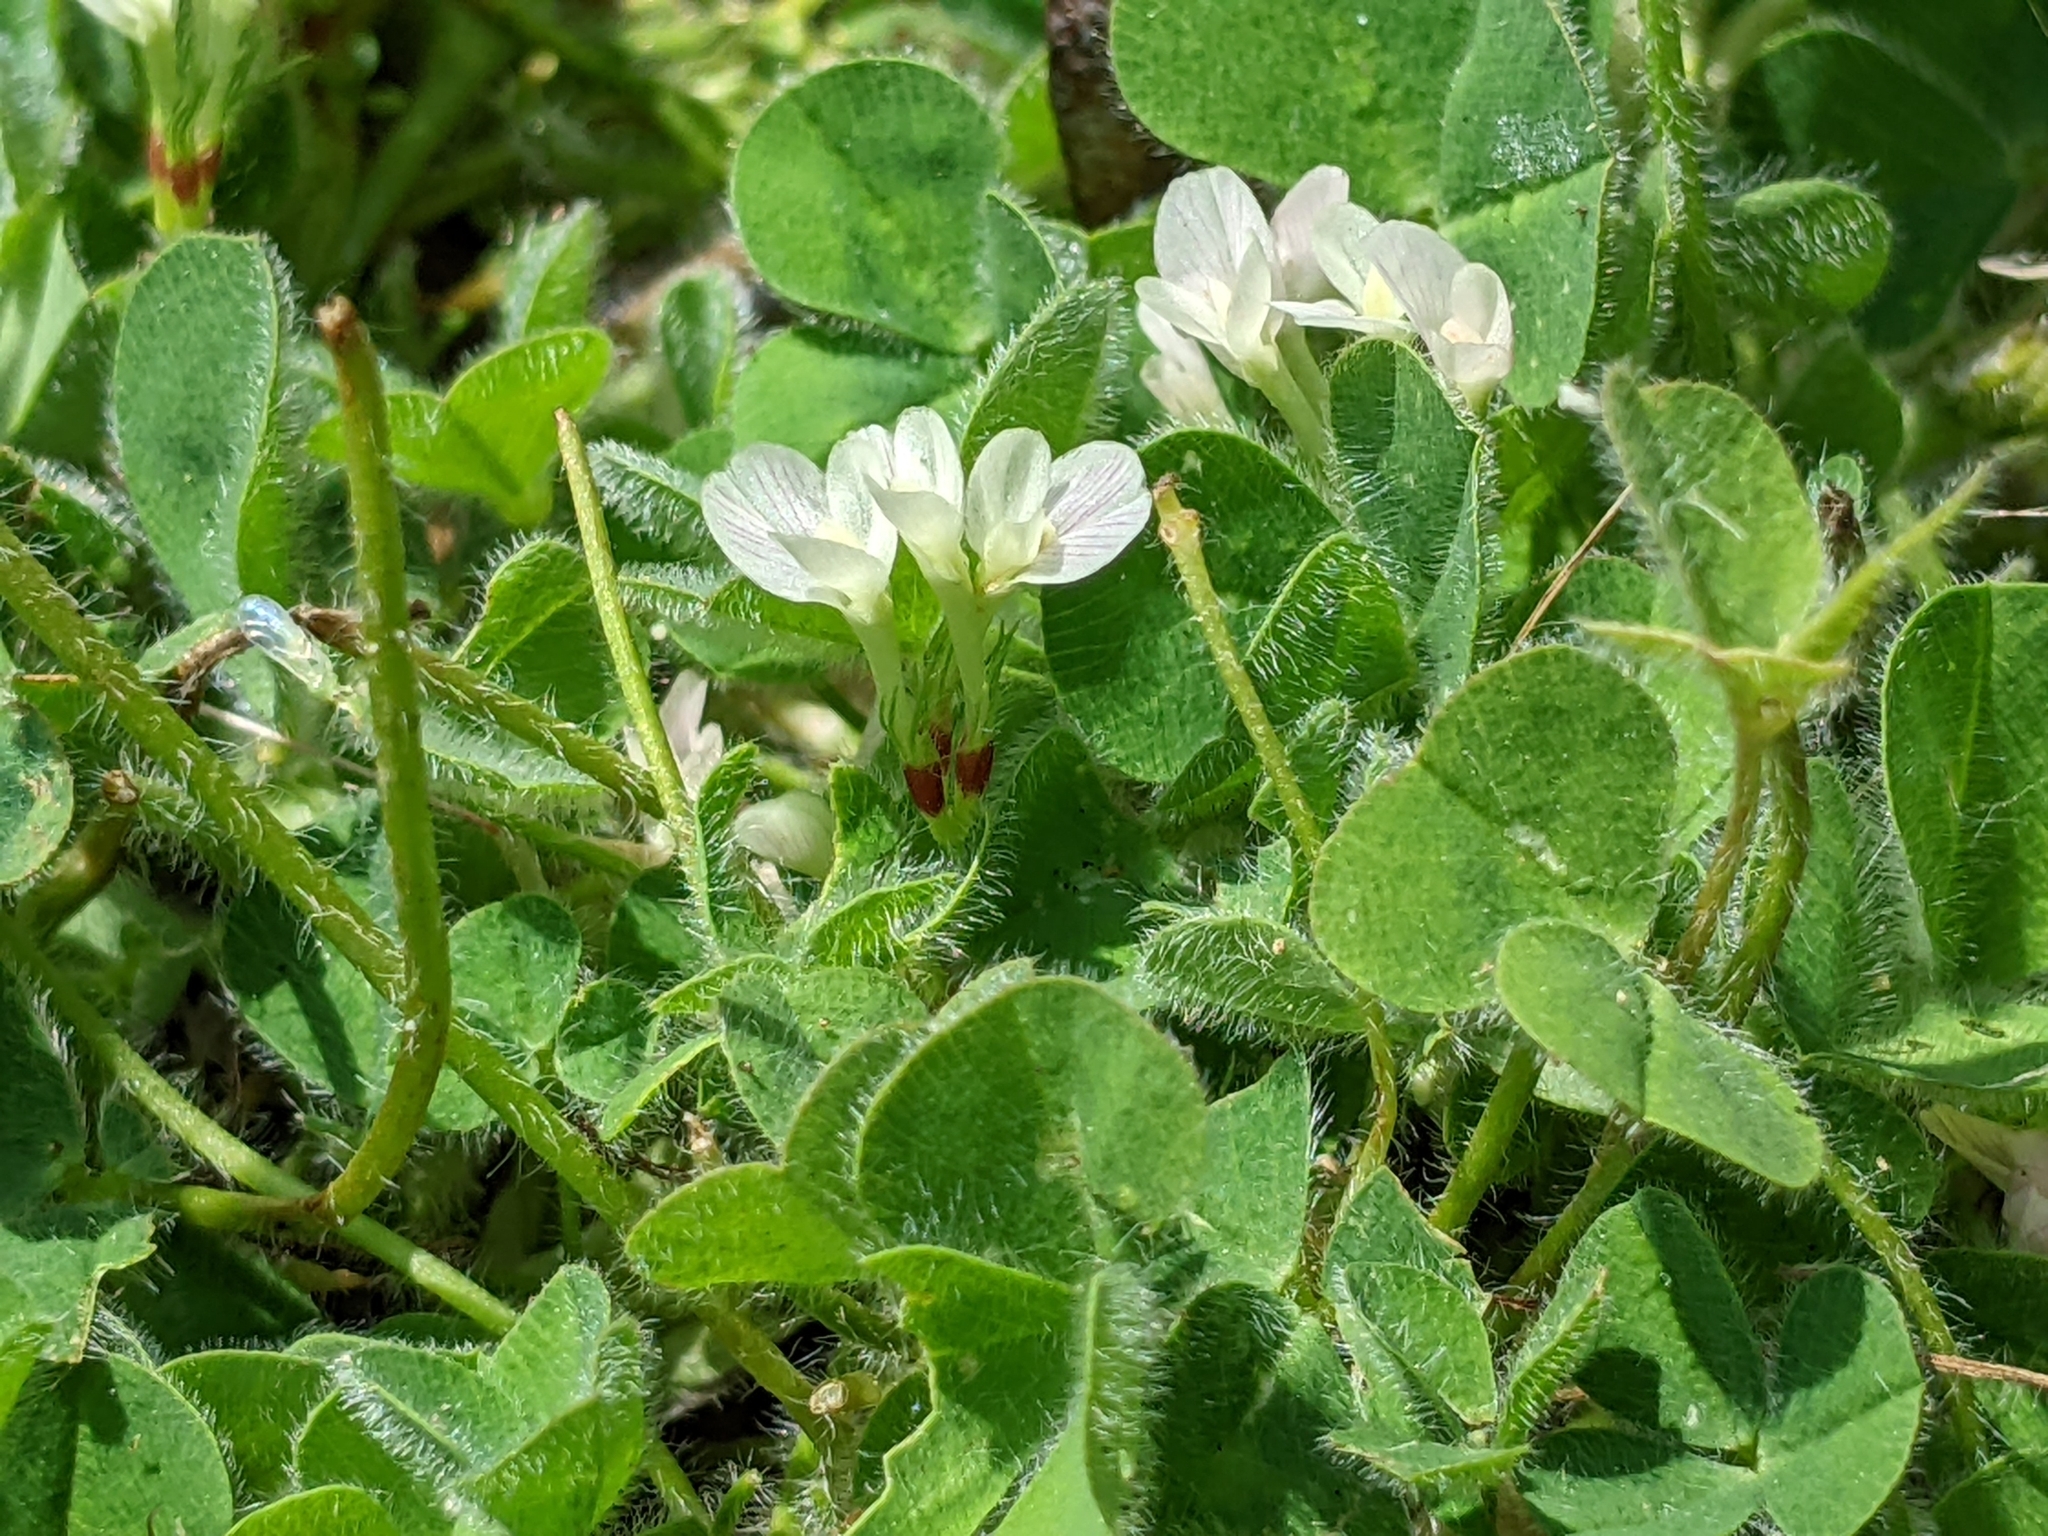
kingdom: Plantae
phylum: Tracheophyta
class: Magnoliopsida
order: Fabales
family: Fabaceae
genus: Trifolium
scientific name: Trifolium subterraneum
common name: Subterranean clover
